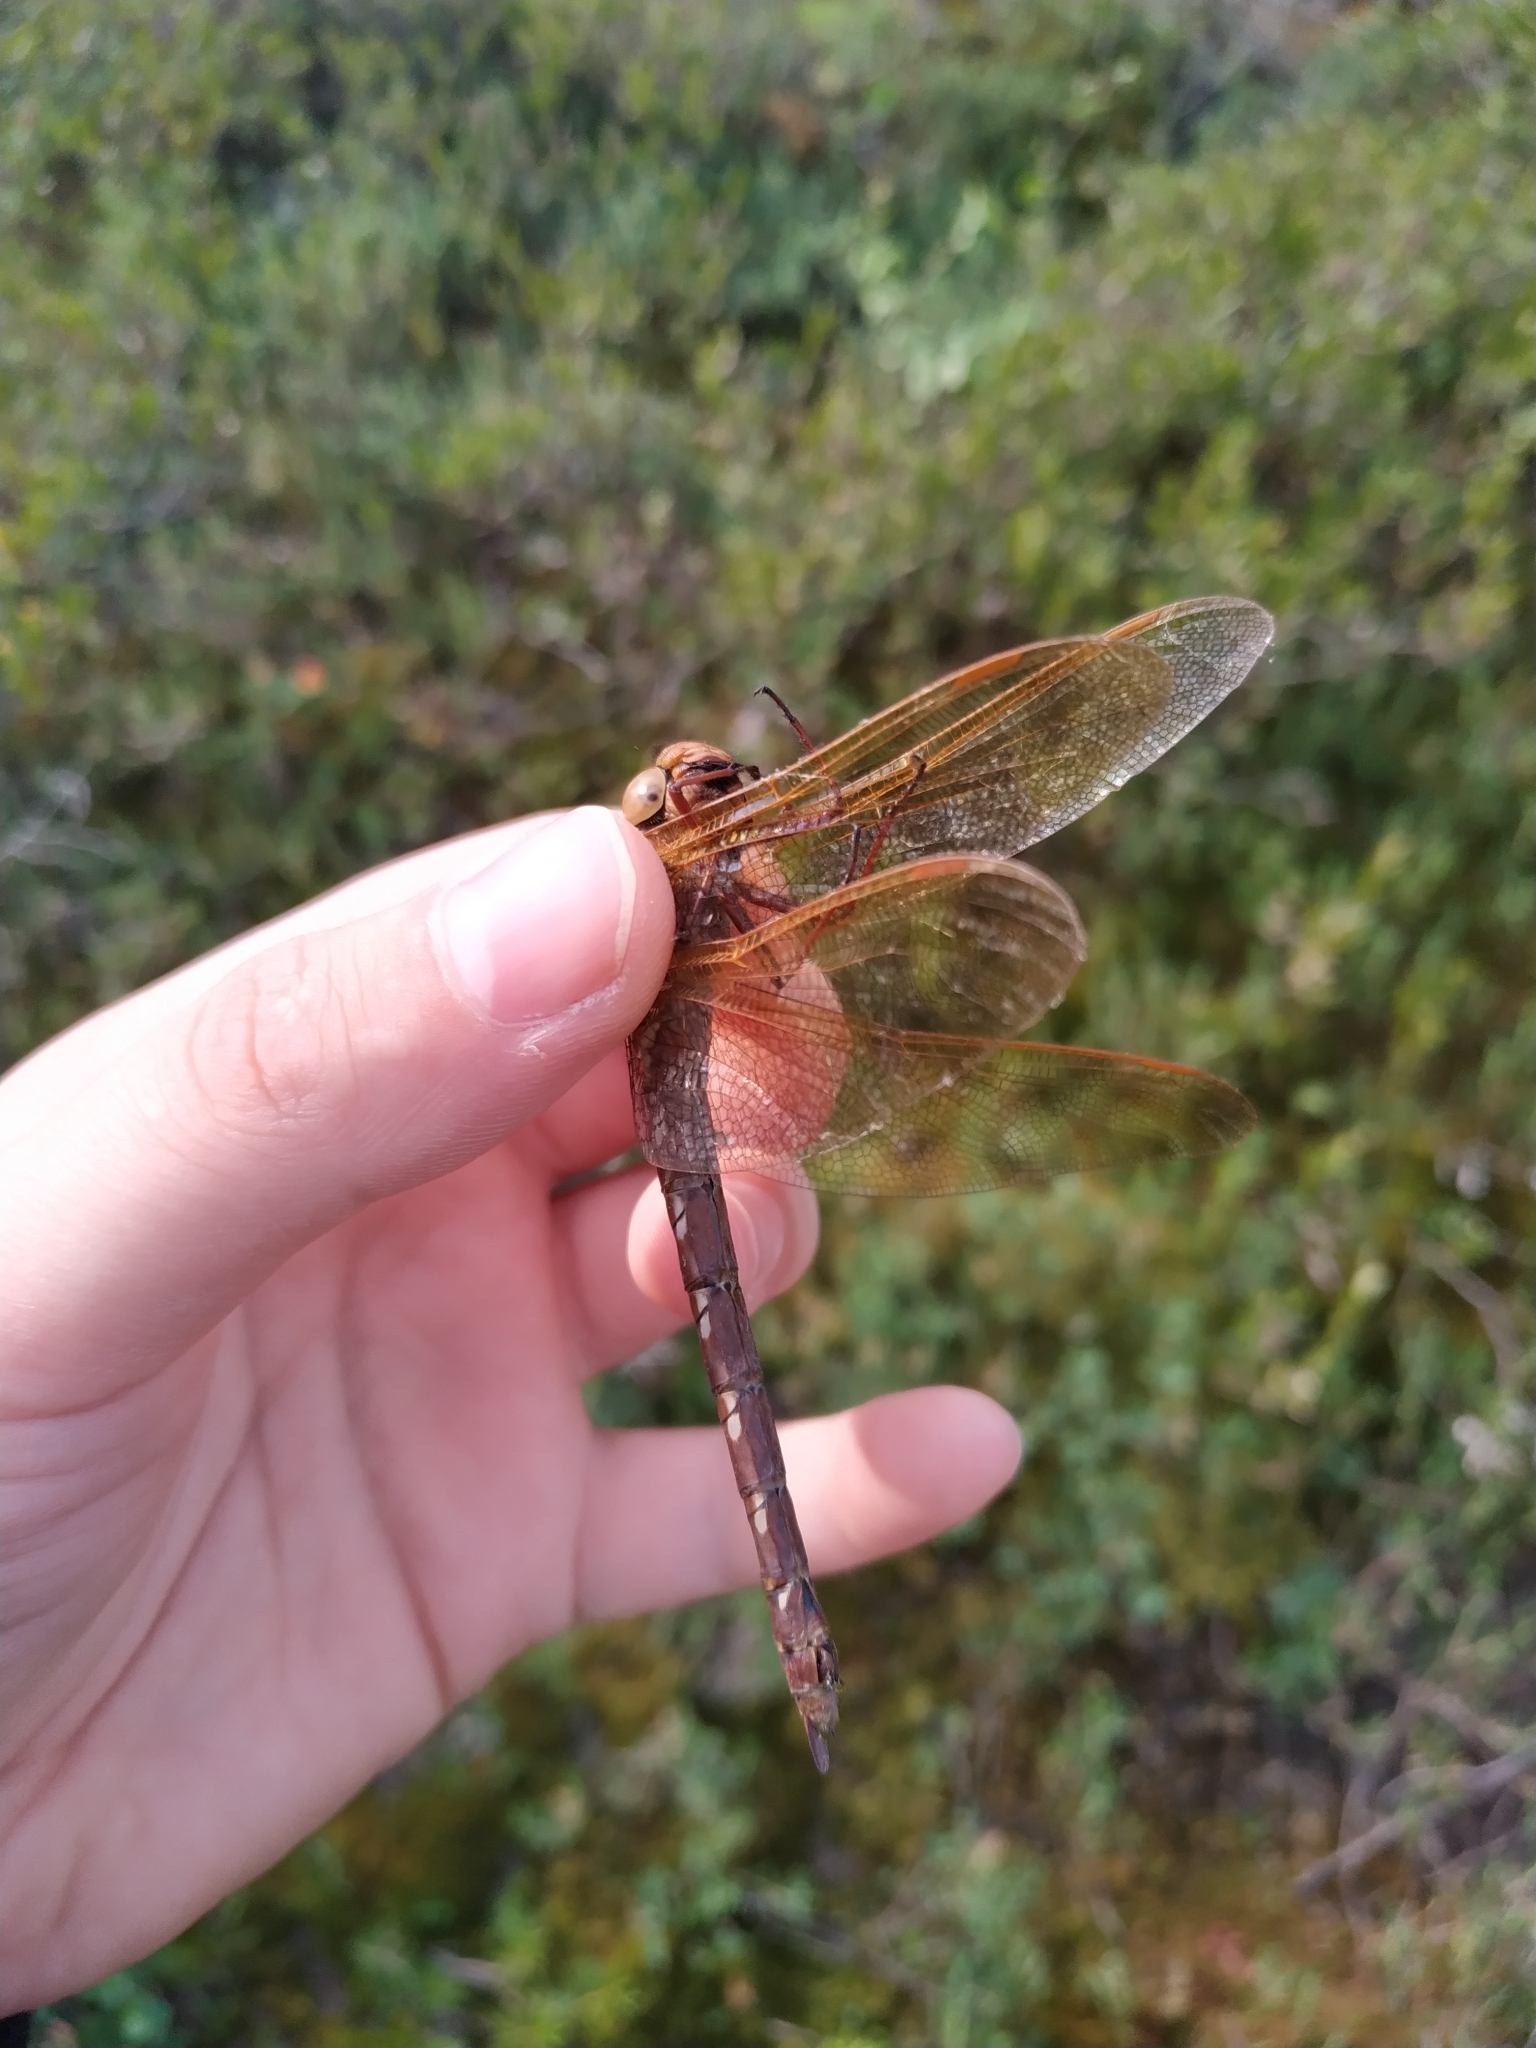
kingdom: Animalia
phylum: Arthropoda
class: Insecta
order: Odonata
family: Aeshnidae
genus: Aeshna
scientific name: Aeshna grandis
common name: Brown hawker
